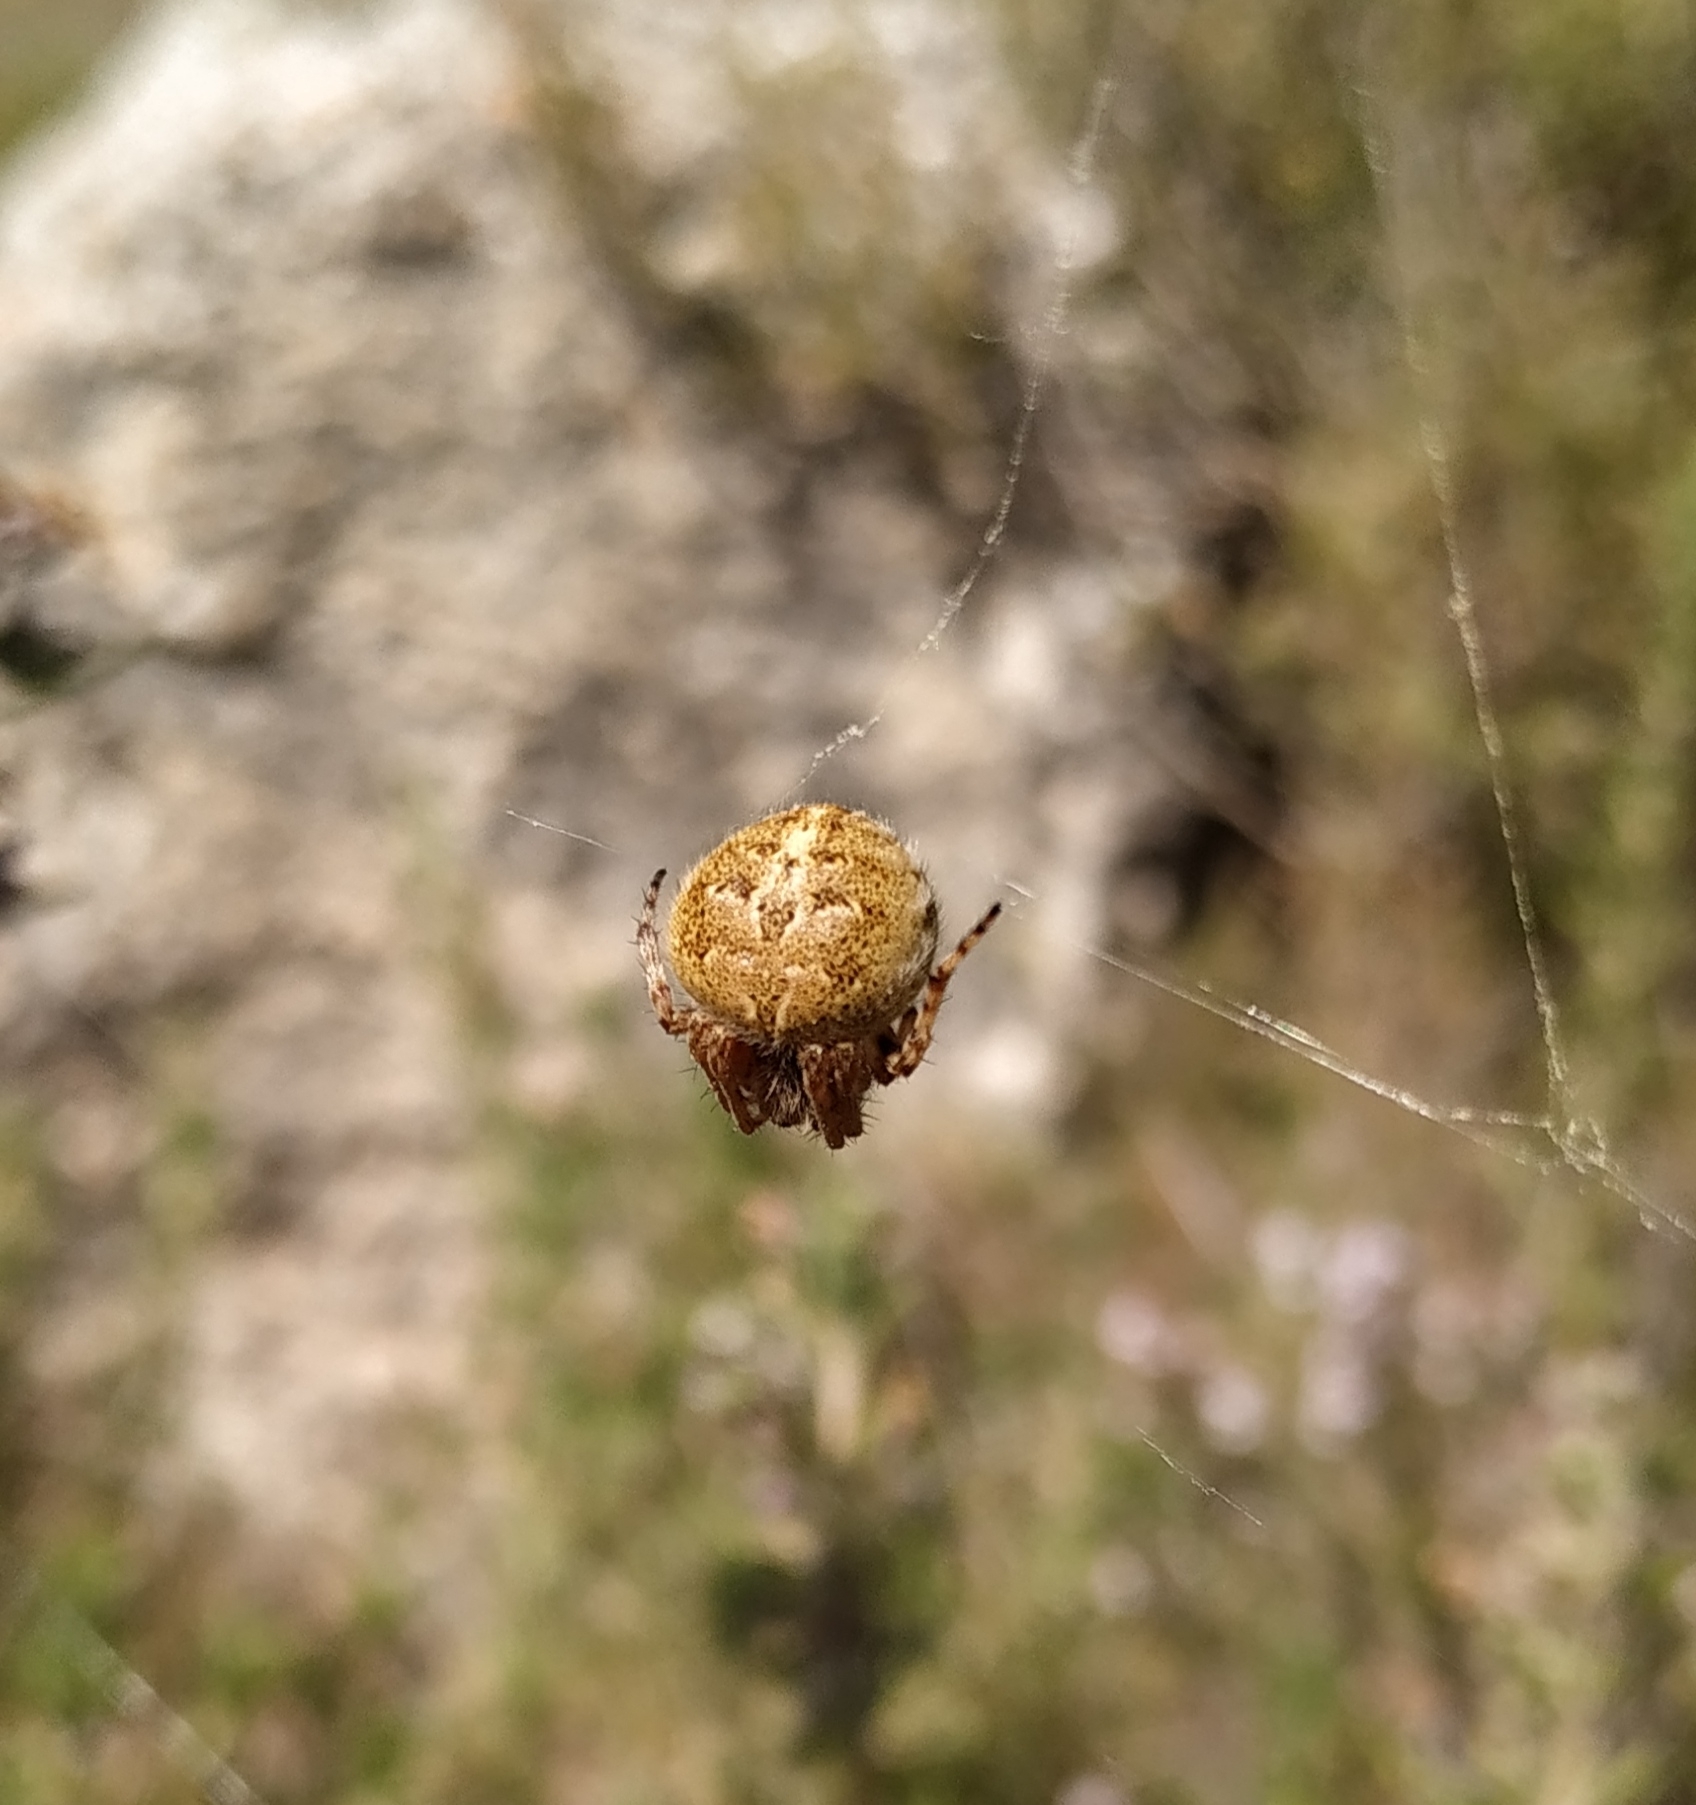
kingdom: Animalia
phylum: Arthropoda
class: Arachnida
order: Araneae
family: Araneidae
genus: Agalenatea
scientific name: Agalenatea redii
